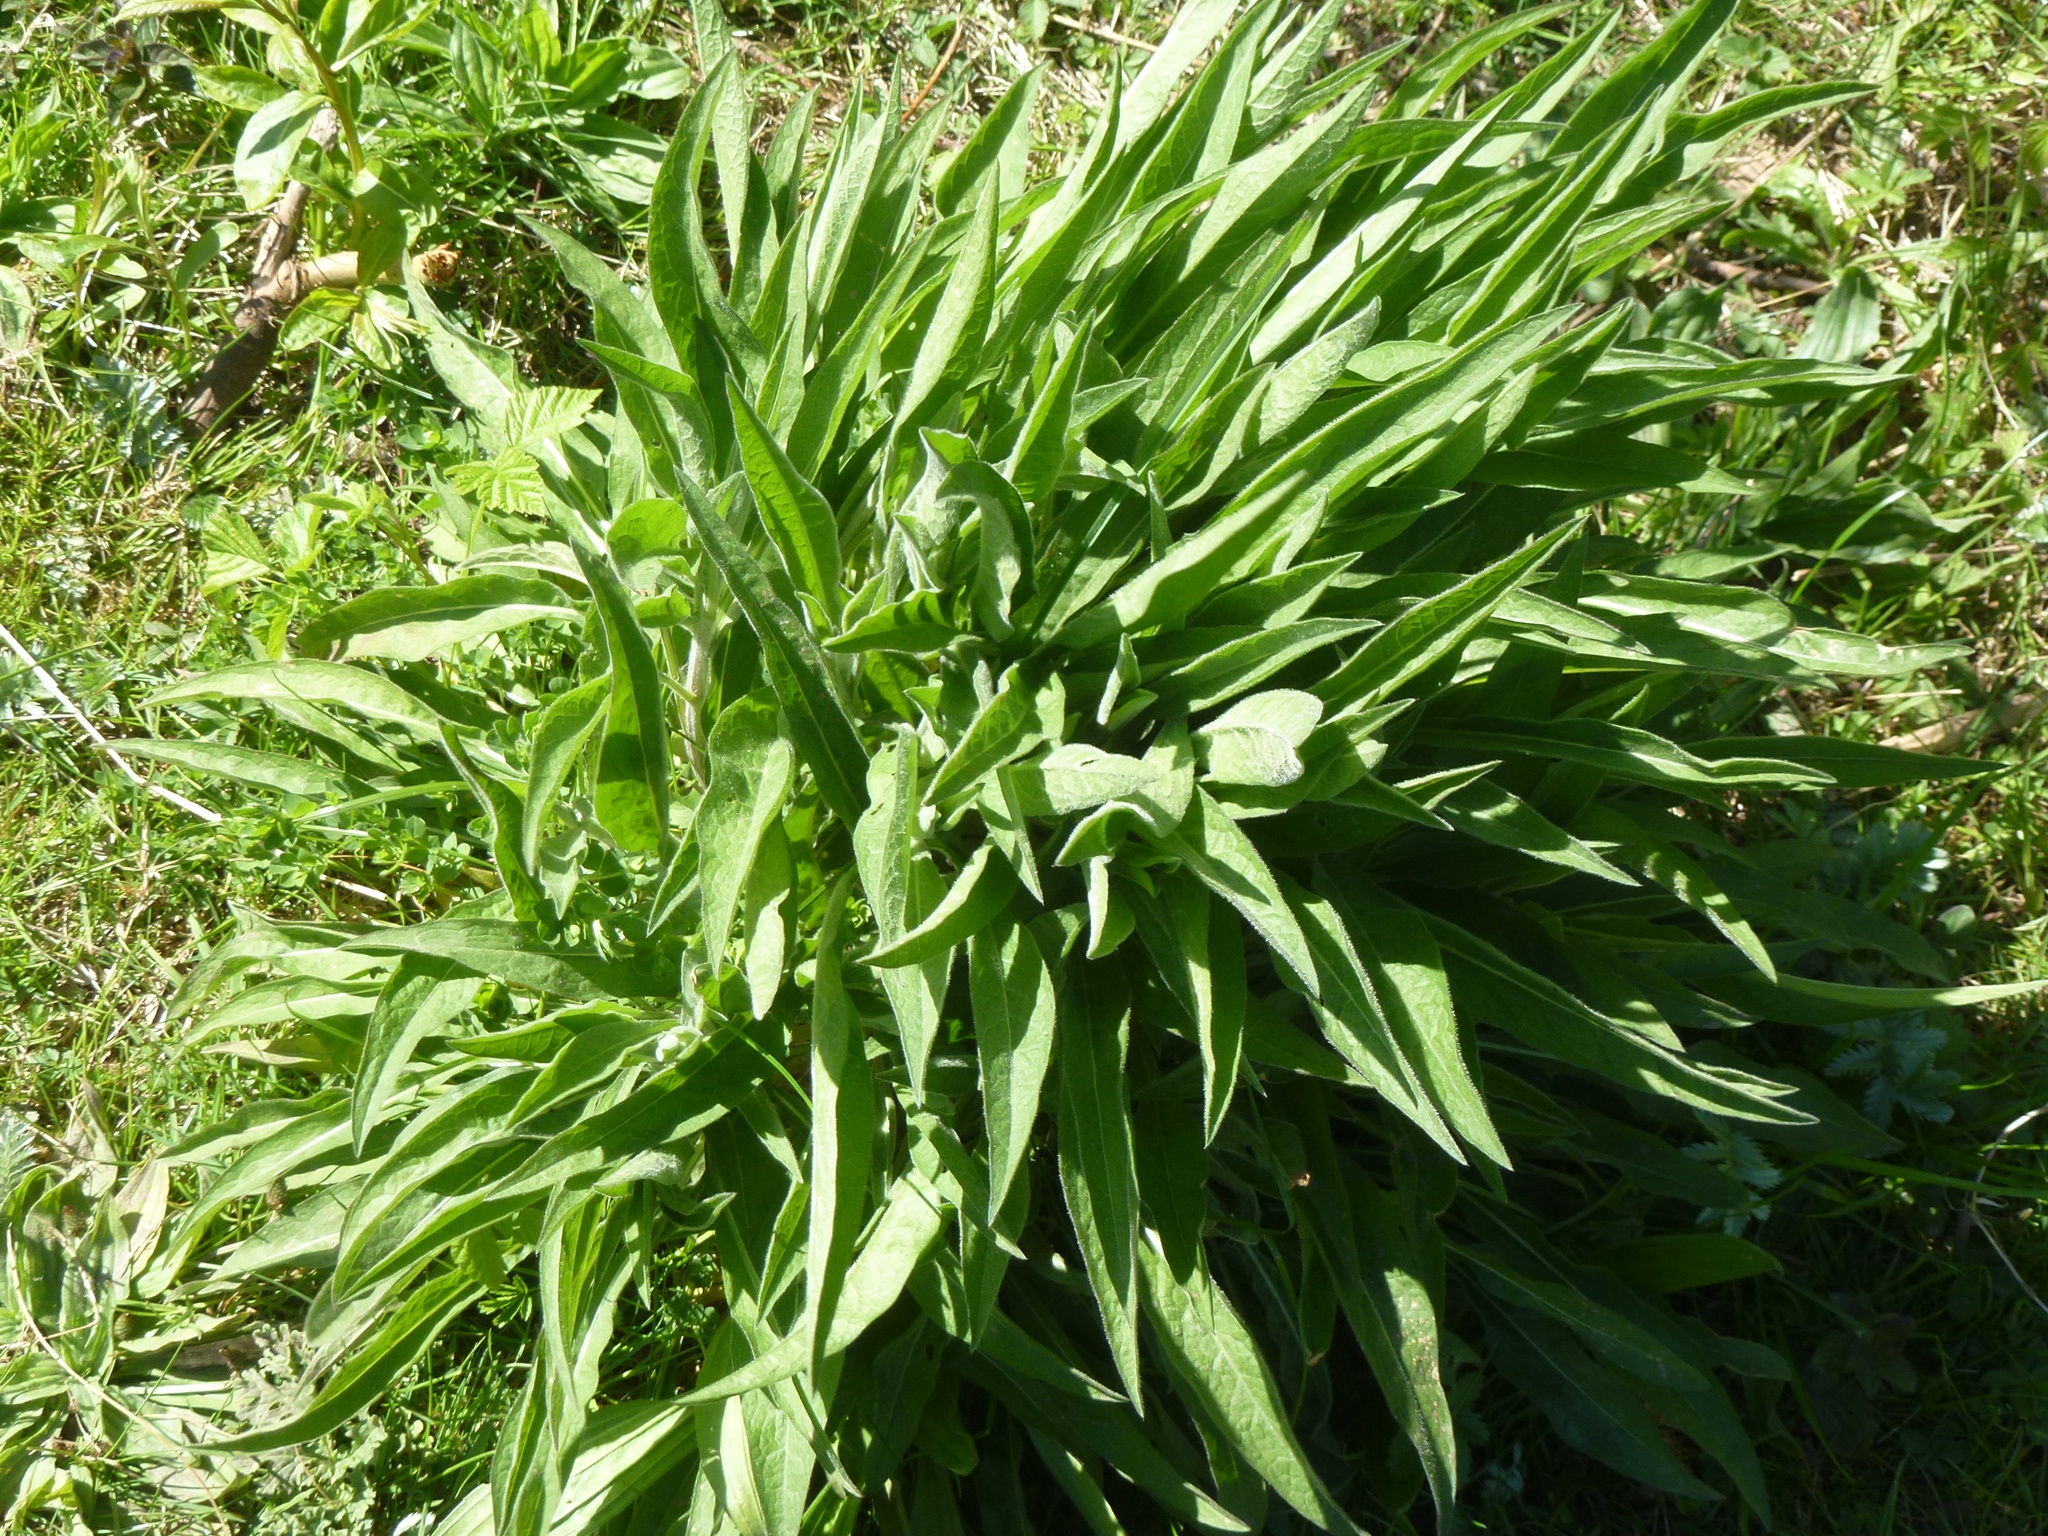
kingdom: Plantae
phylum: Tracheophyta
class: Magnoliopsida
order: Asterales
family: Asteraceae
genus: Centaurea
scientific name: Centaurea nigra
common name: Lesser knapweed
